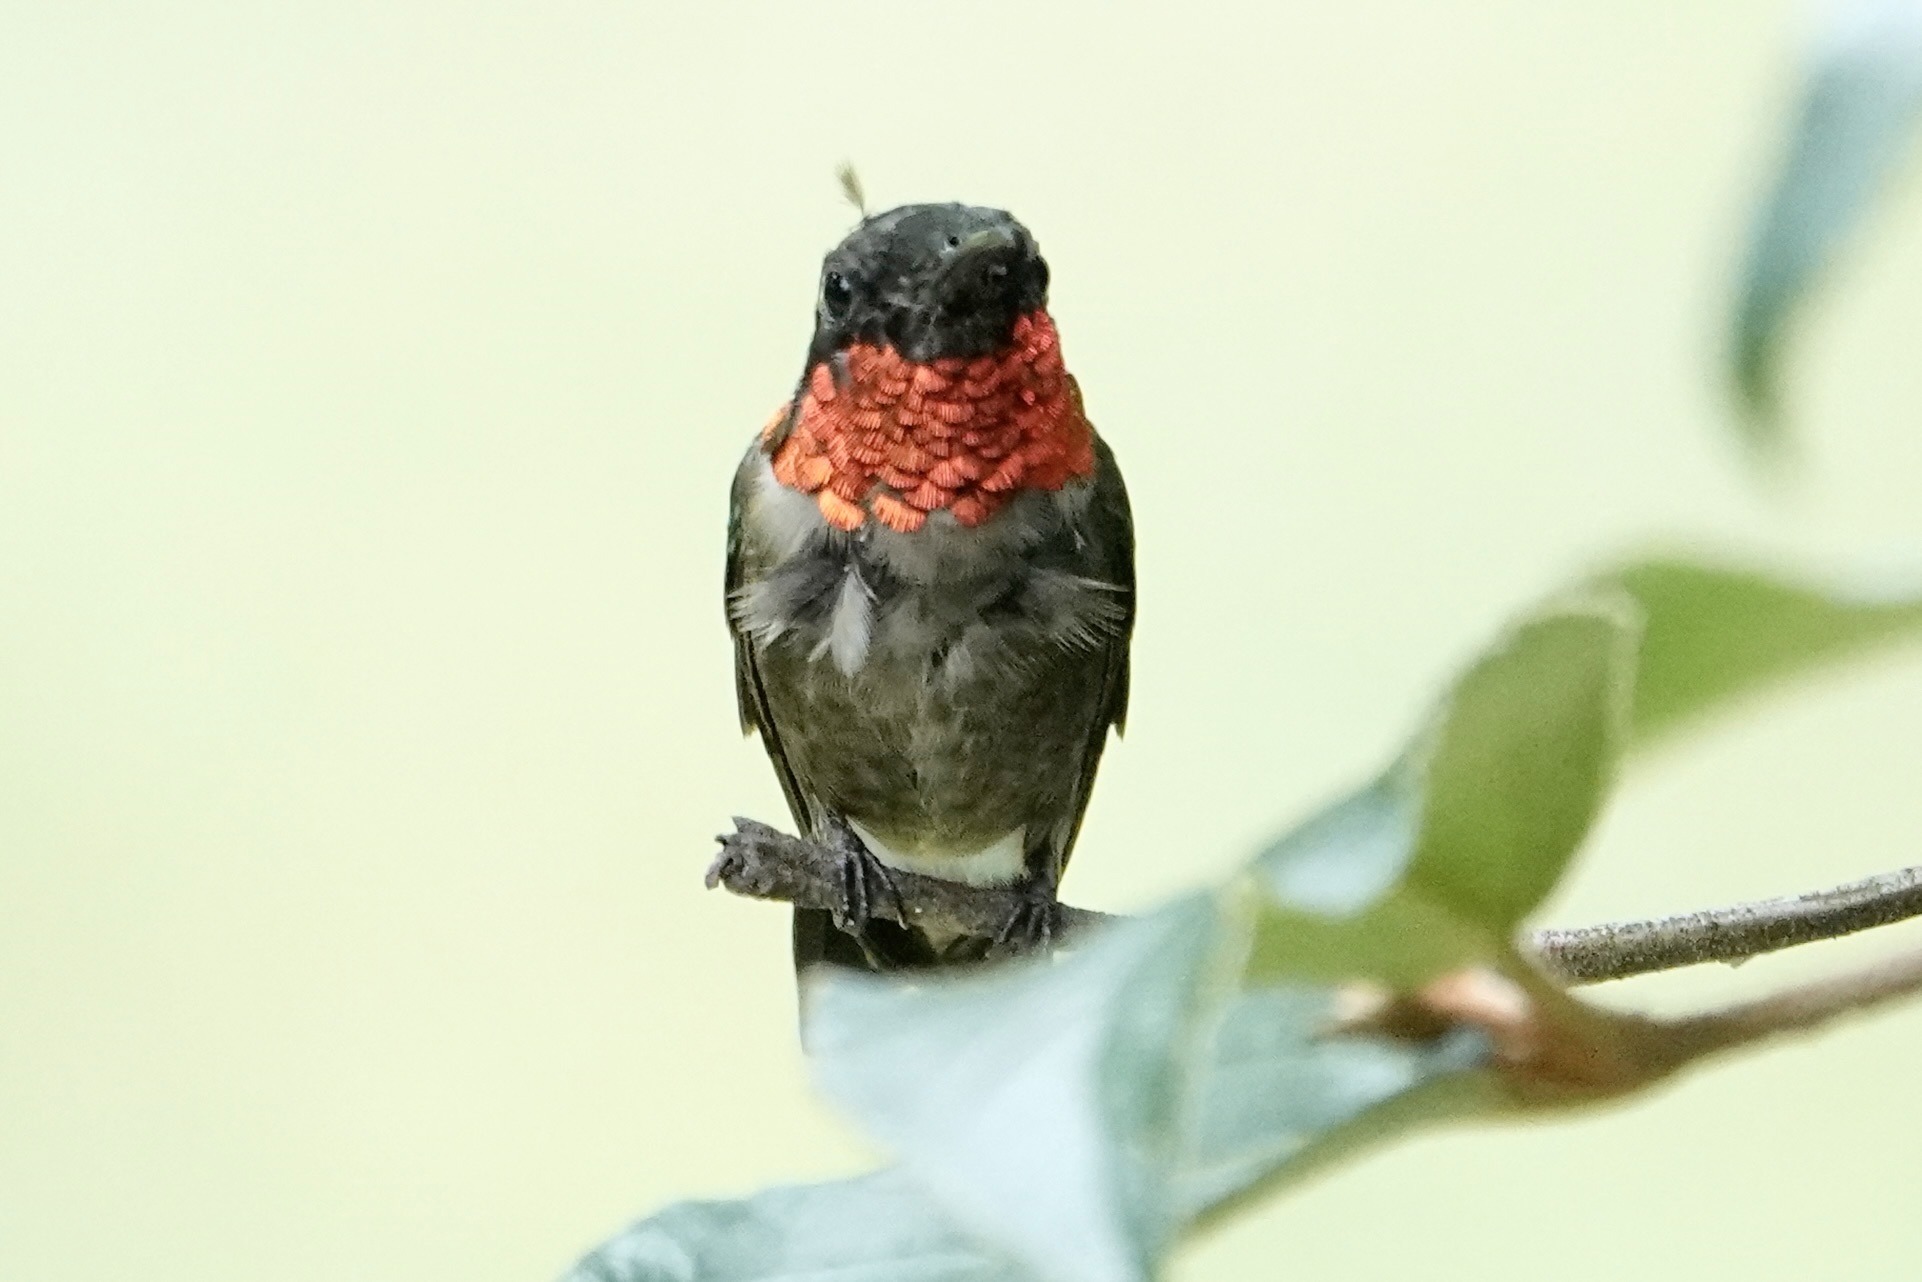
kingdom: Animalia
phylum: Chordata
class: Aves
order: Apodiformes
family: Trochilidae
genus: Archilochus
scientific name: Archilochus colubris
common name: Ruby-throated hummingbird
